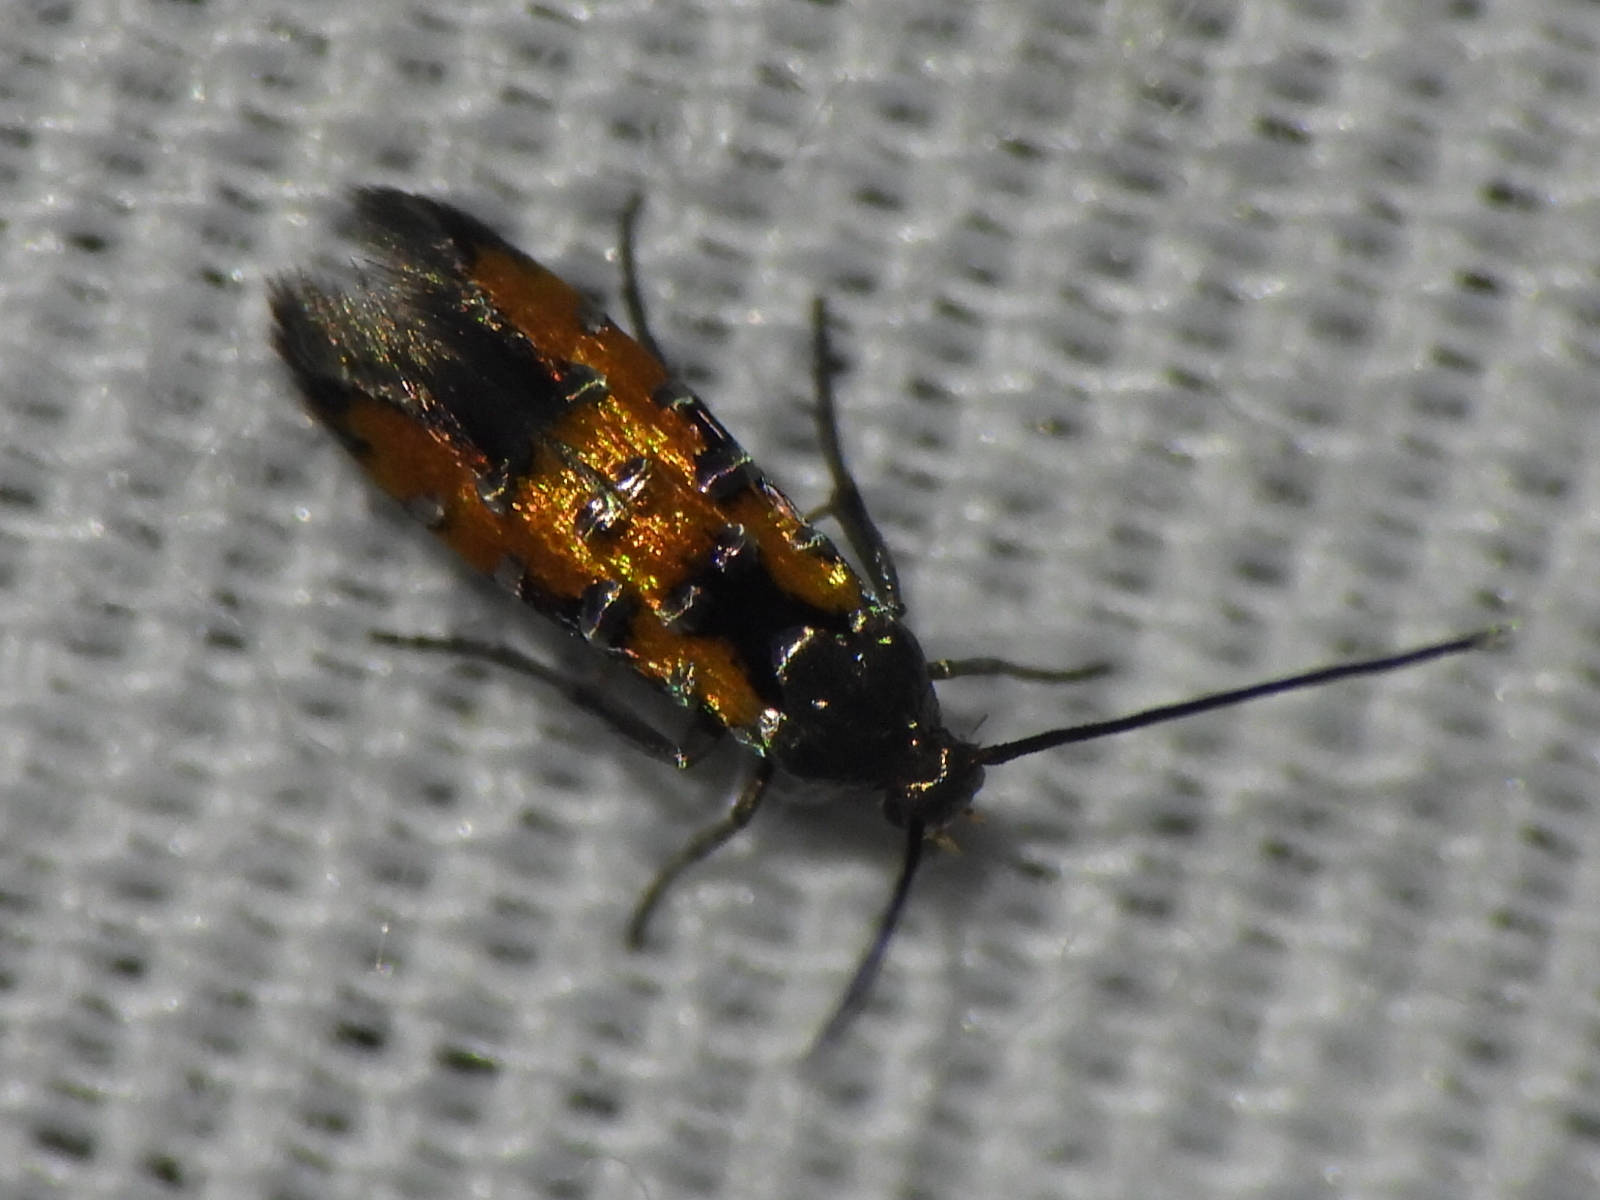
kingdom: Animalia
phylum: Arthropoda
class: Insecta
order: Lepidoptera
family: Cosmopterigidae
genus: Euclemensia
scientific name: Euclemensia bassettella
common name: Kermes scale moth
